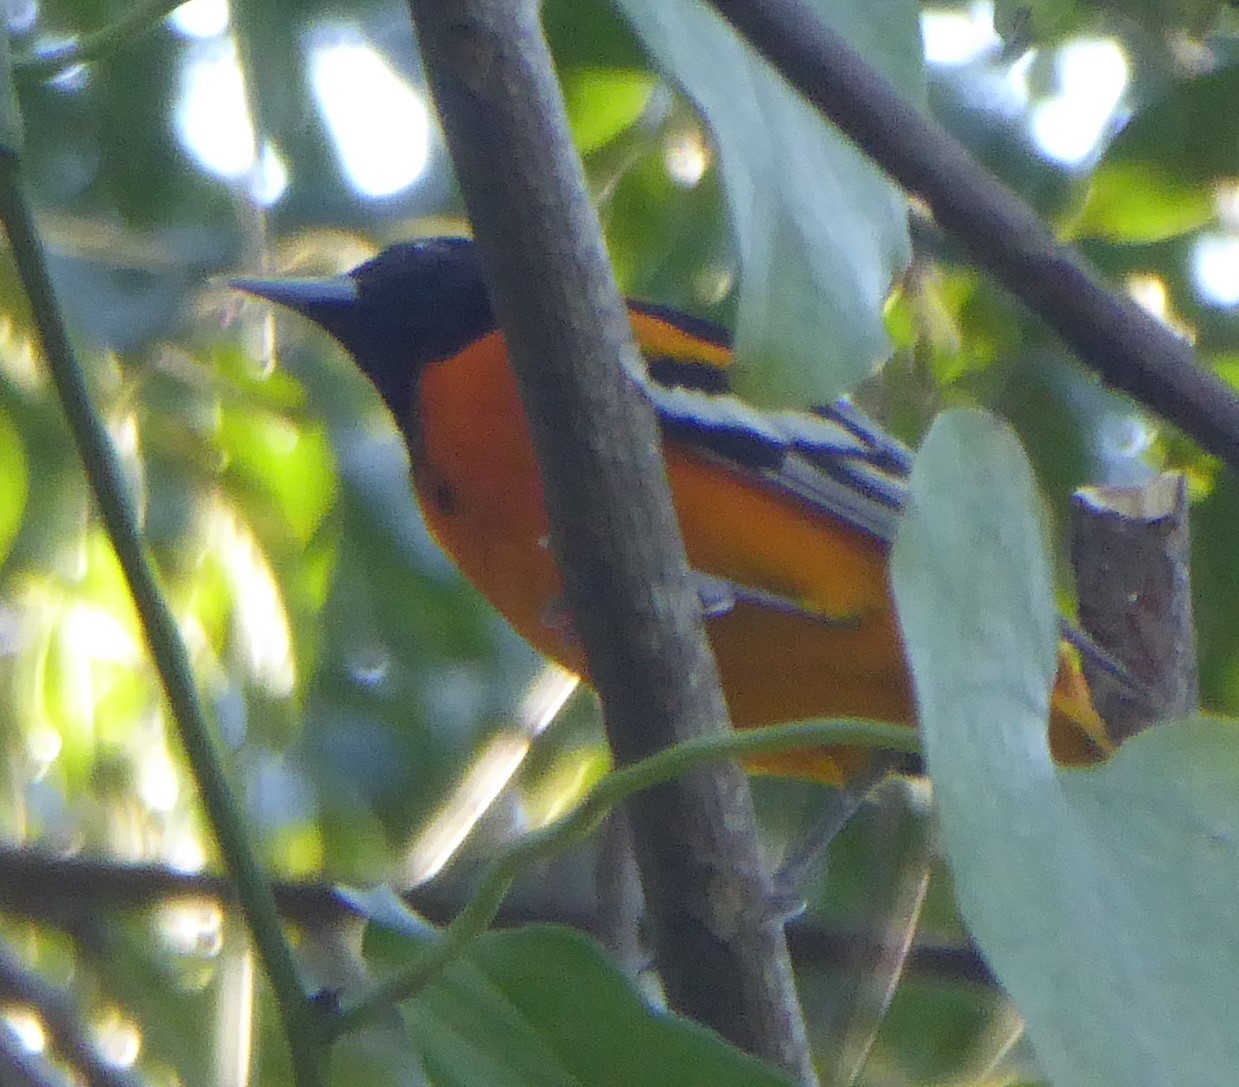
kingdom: Animalia
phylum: Chordata
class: Aves
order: Passeriformes
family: Icteridae
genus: Icterus
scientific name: Icterus galbula
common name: Baltimore oriole
